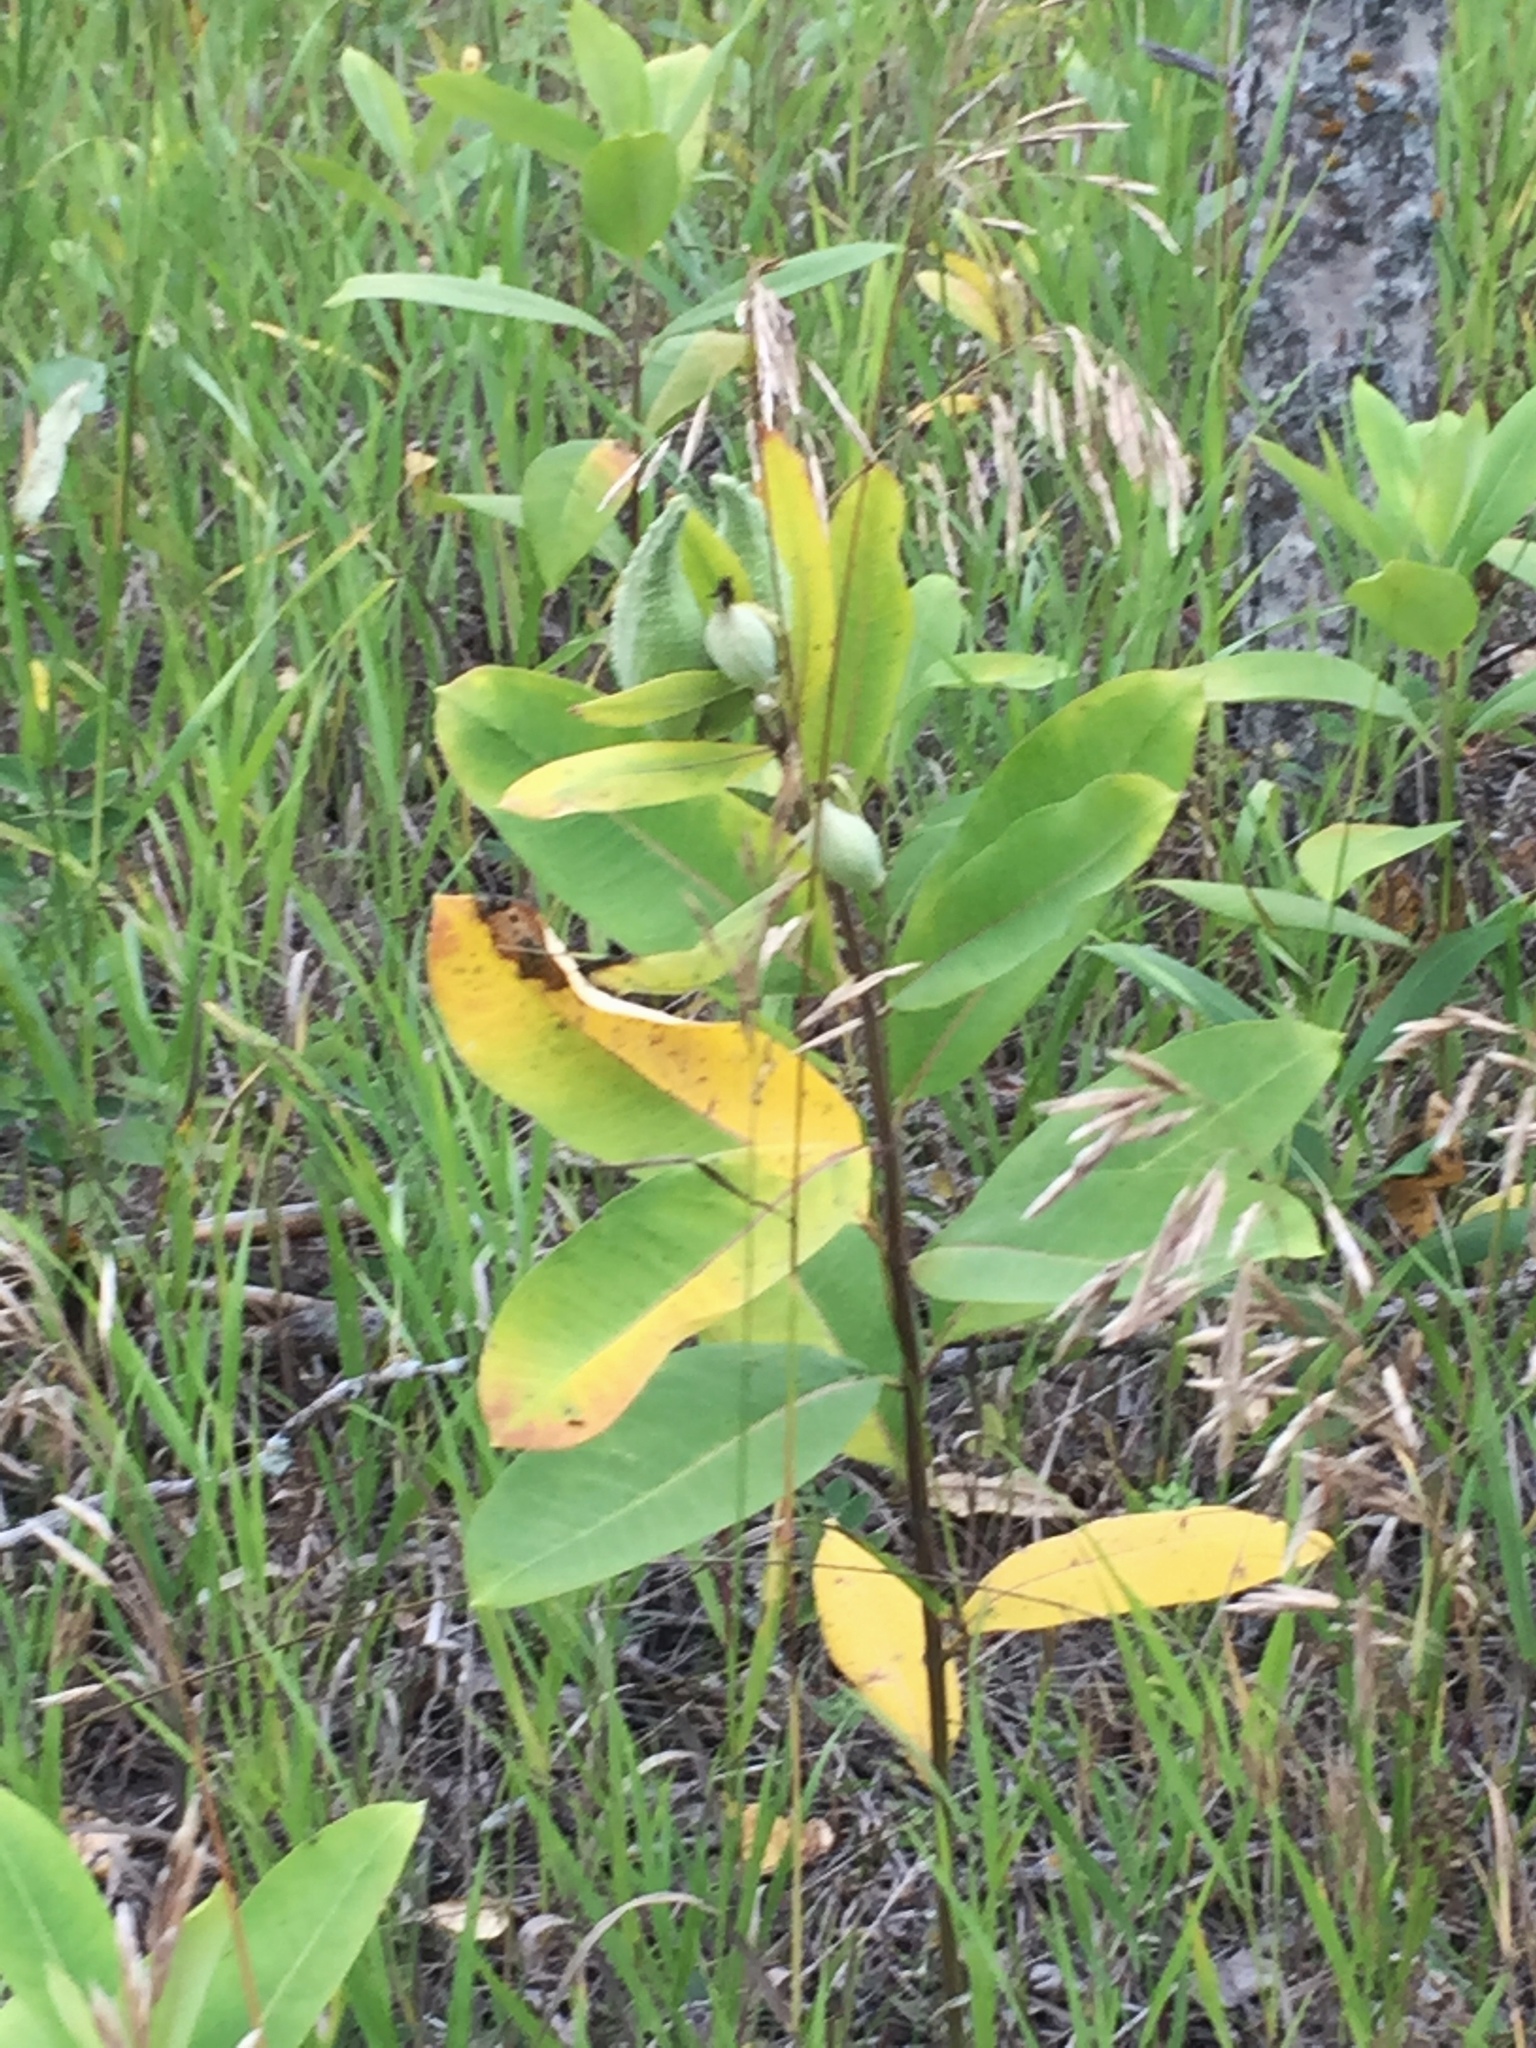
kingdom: Plantae
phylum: Tracheophyta
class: Magnoliopsida
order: Gentianales
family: Apocynaceae
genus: Asclepias
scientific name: Asclepias syriaca
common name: Common milkweed
